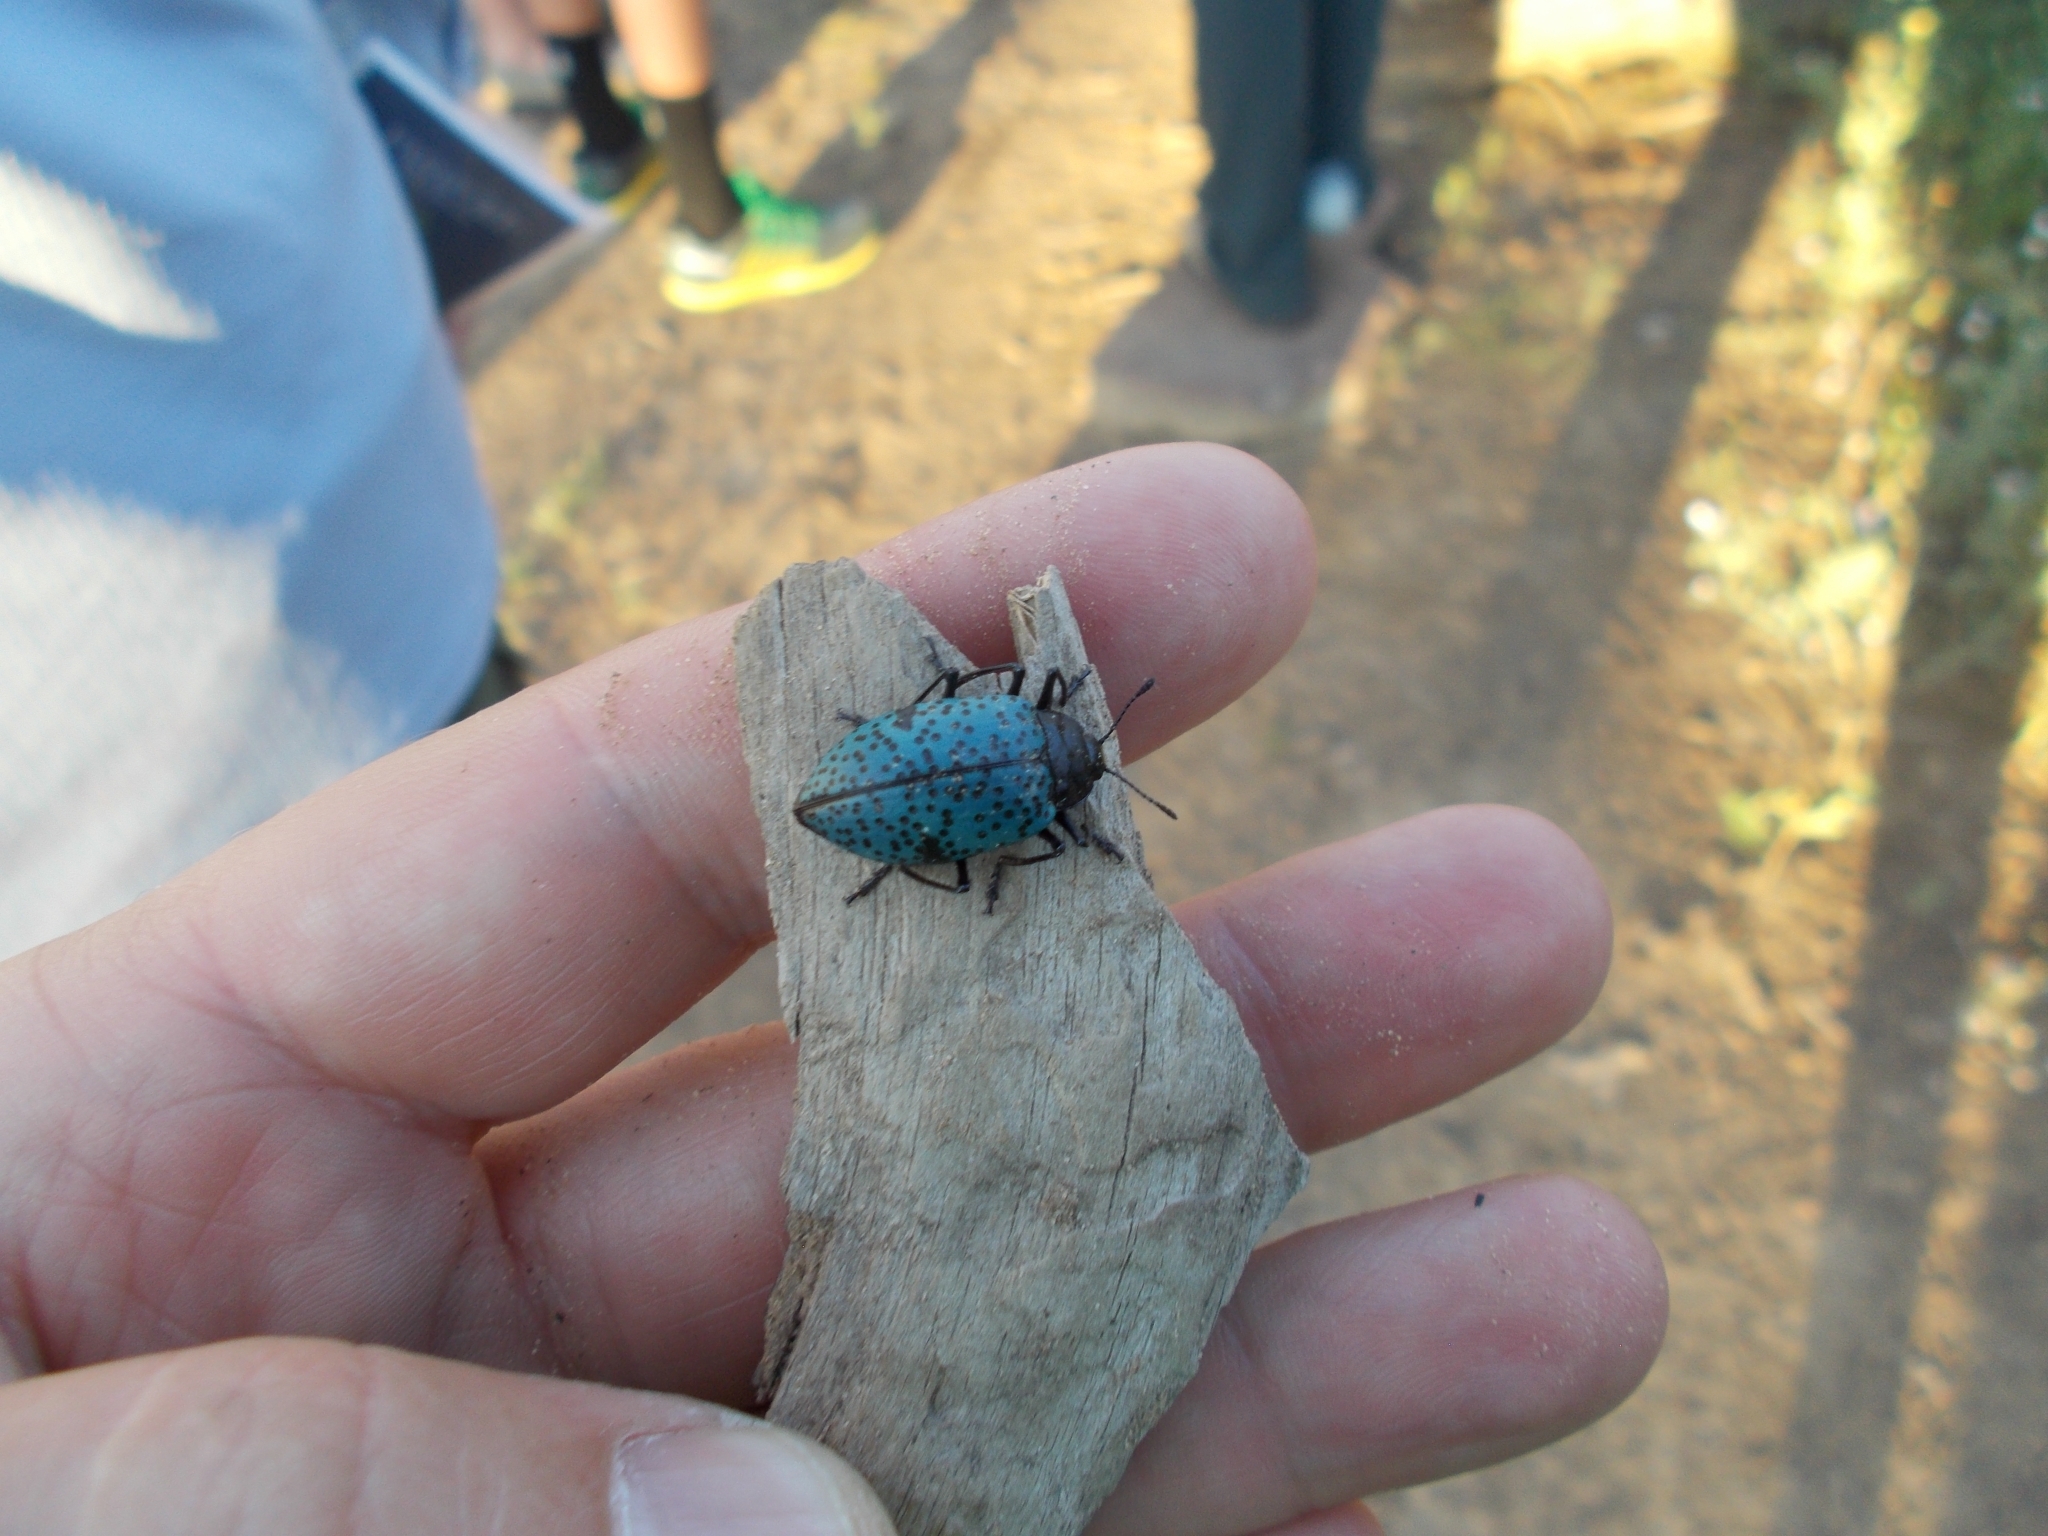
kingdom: Animalia
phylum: Arthropoda
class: Insecta
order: Coleoptera
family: Erotylidae
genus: Gibbifer
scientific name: Gibbifer californicus
